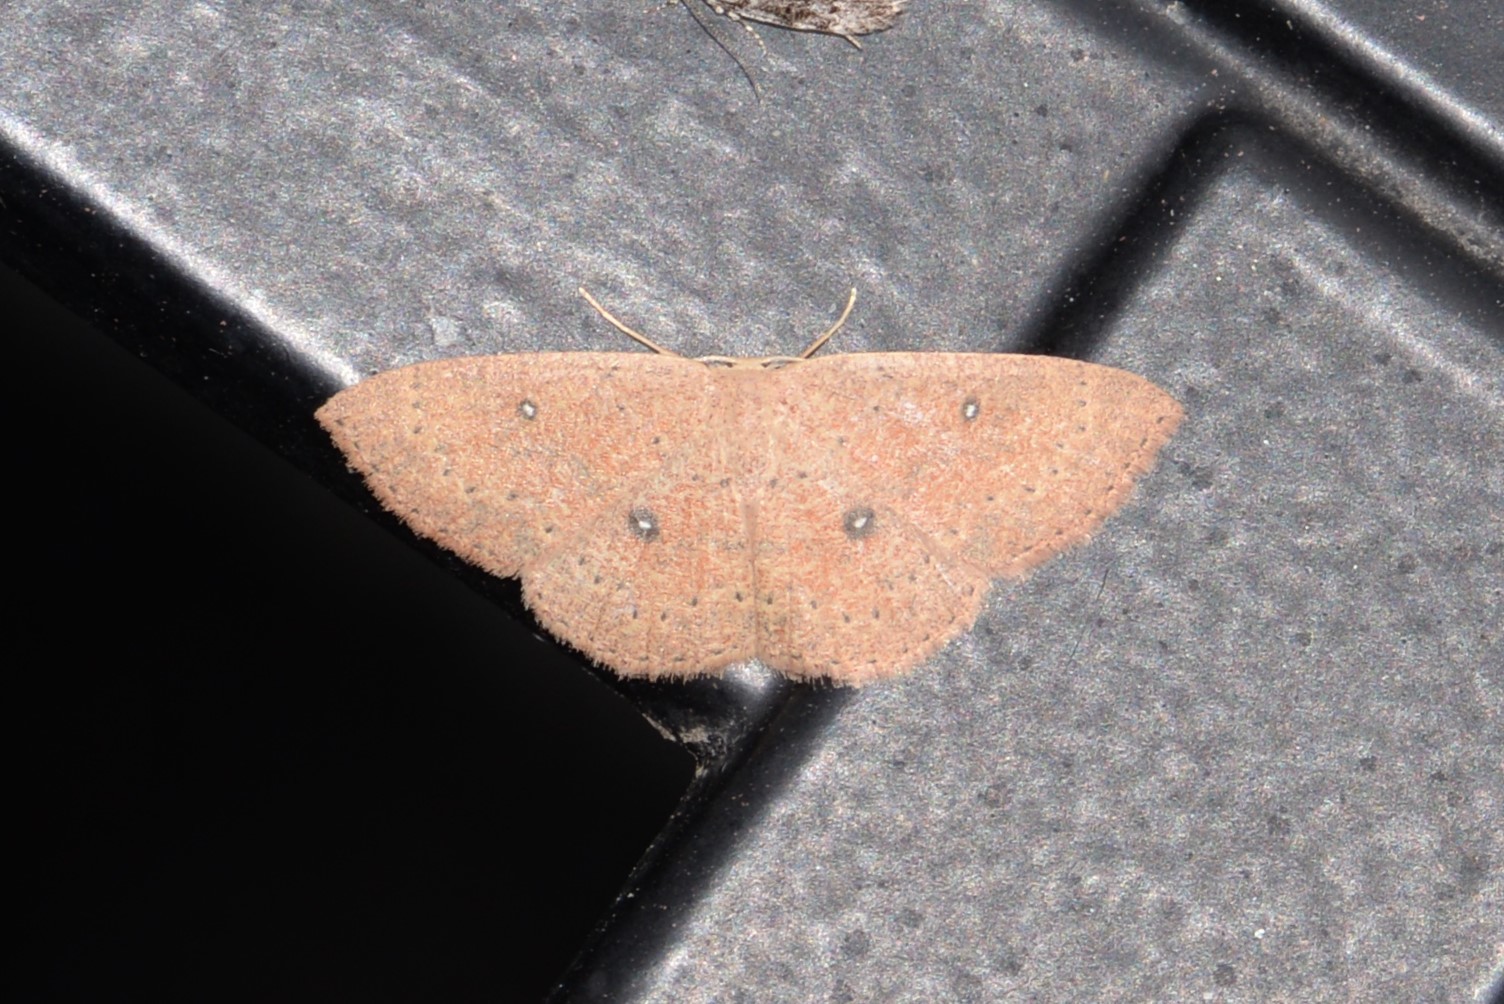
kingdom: Animalia
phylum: Arthropoda
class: Insecta
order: Lepidoptera
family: Geometridae
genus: Cyclophora
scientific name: Cyclophora packardi
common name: Packard's wave
